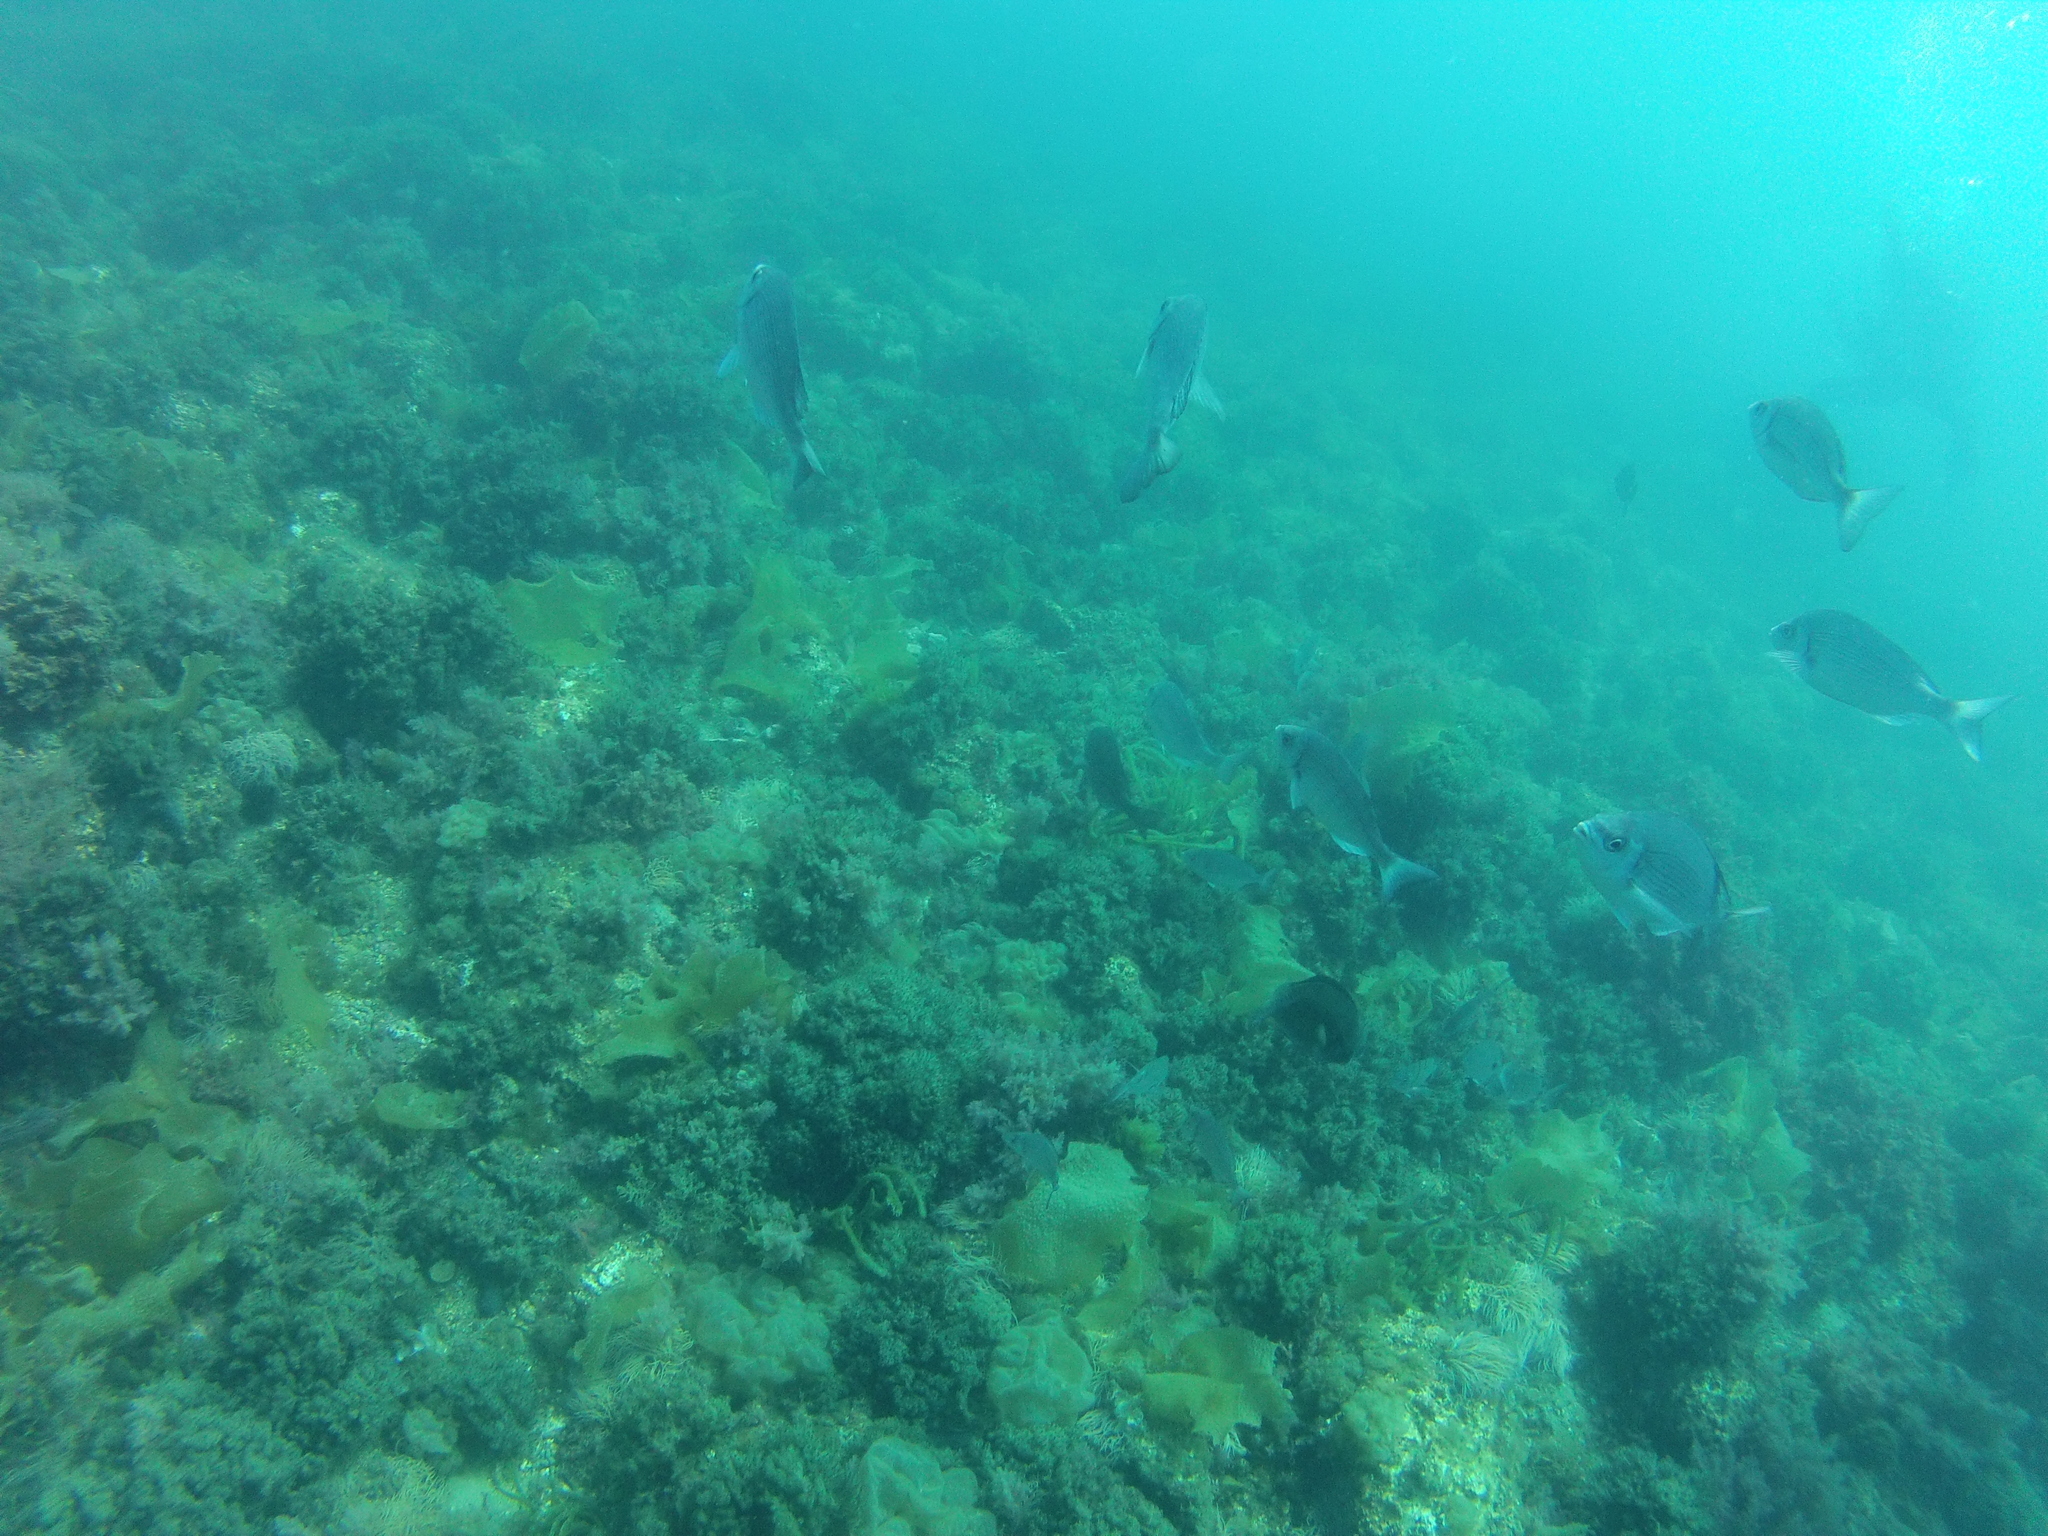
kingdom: Animalia
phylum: Chordata
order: Perciformes
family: Sparidae
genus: Spondyliosoma
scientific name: Spondyliosoma cantharus
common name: Black seabream
